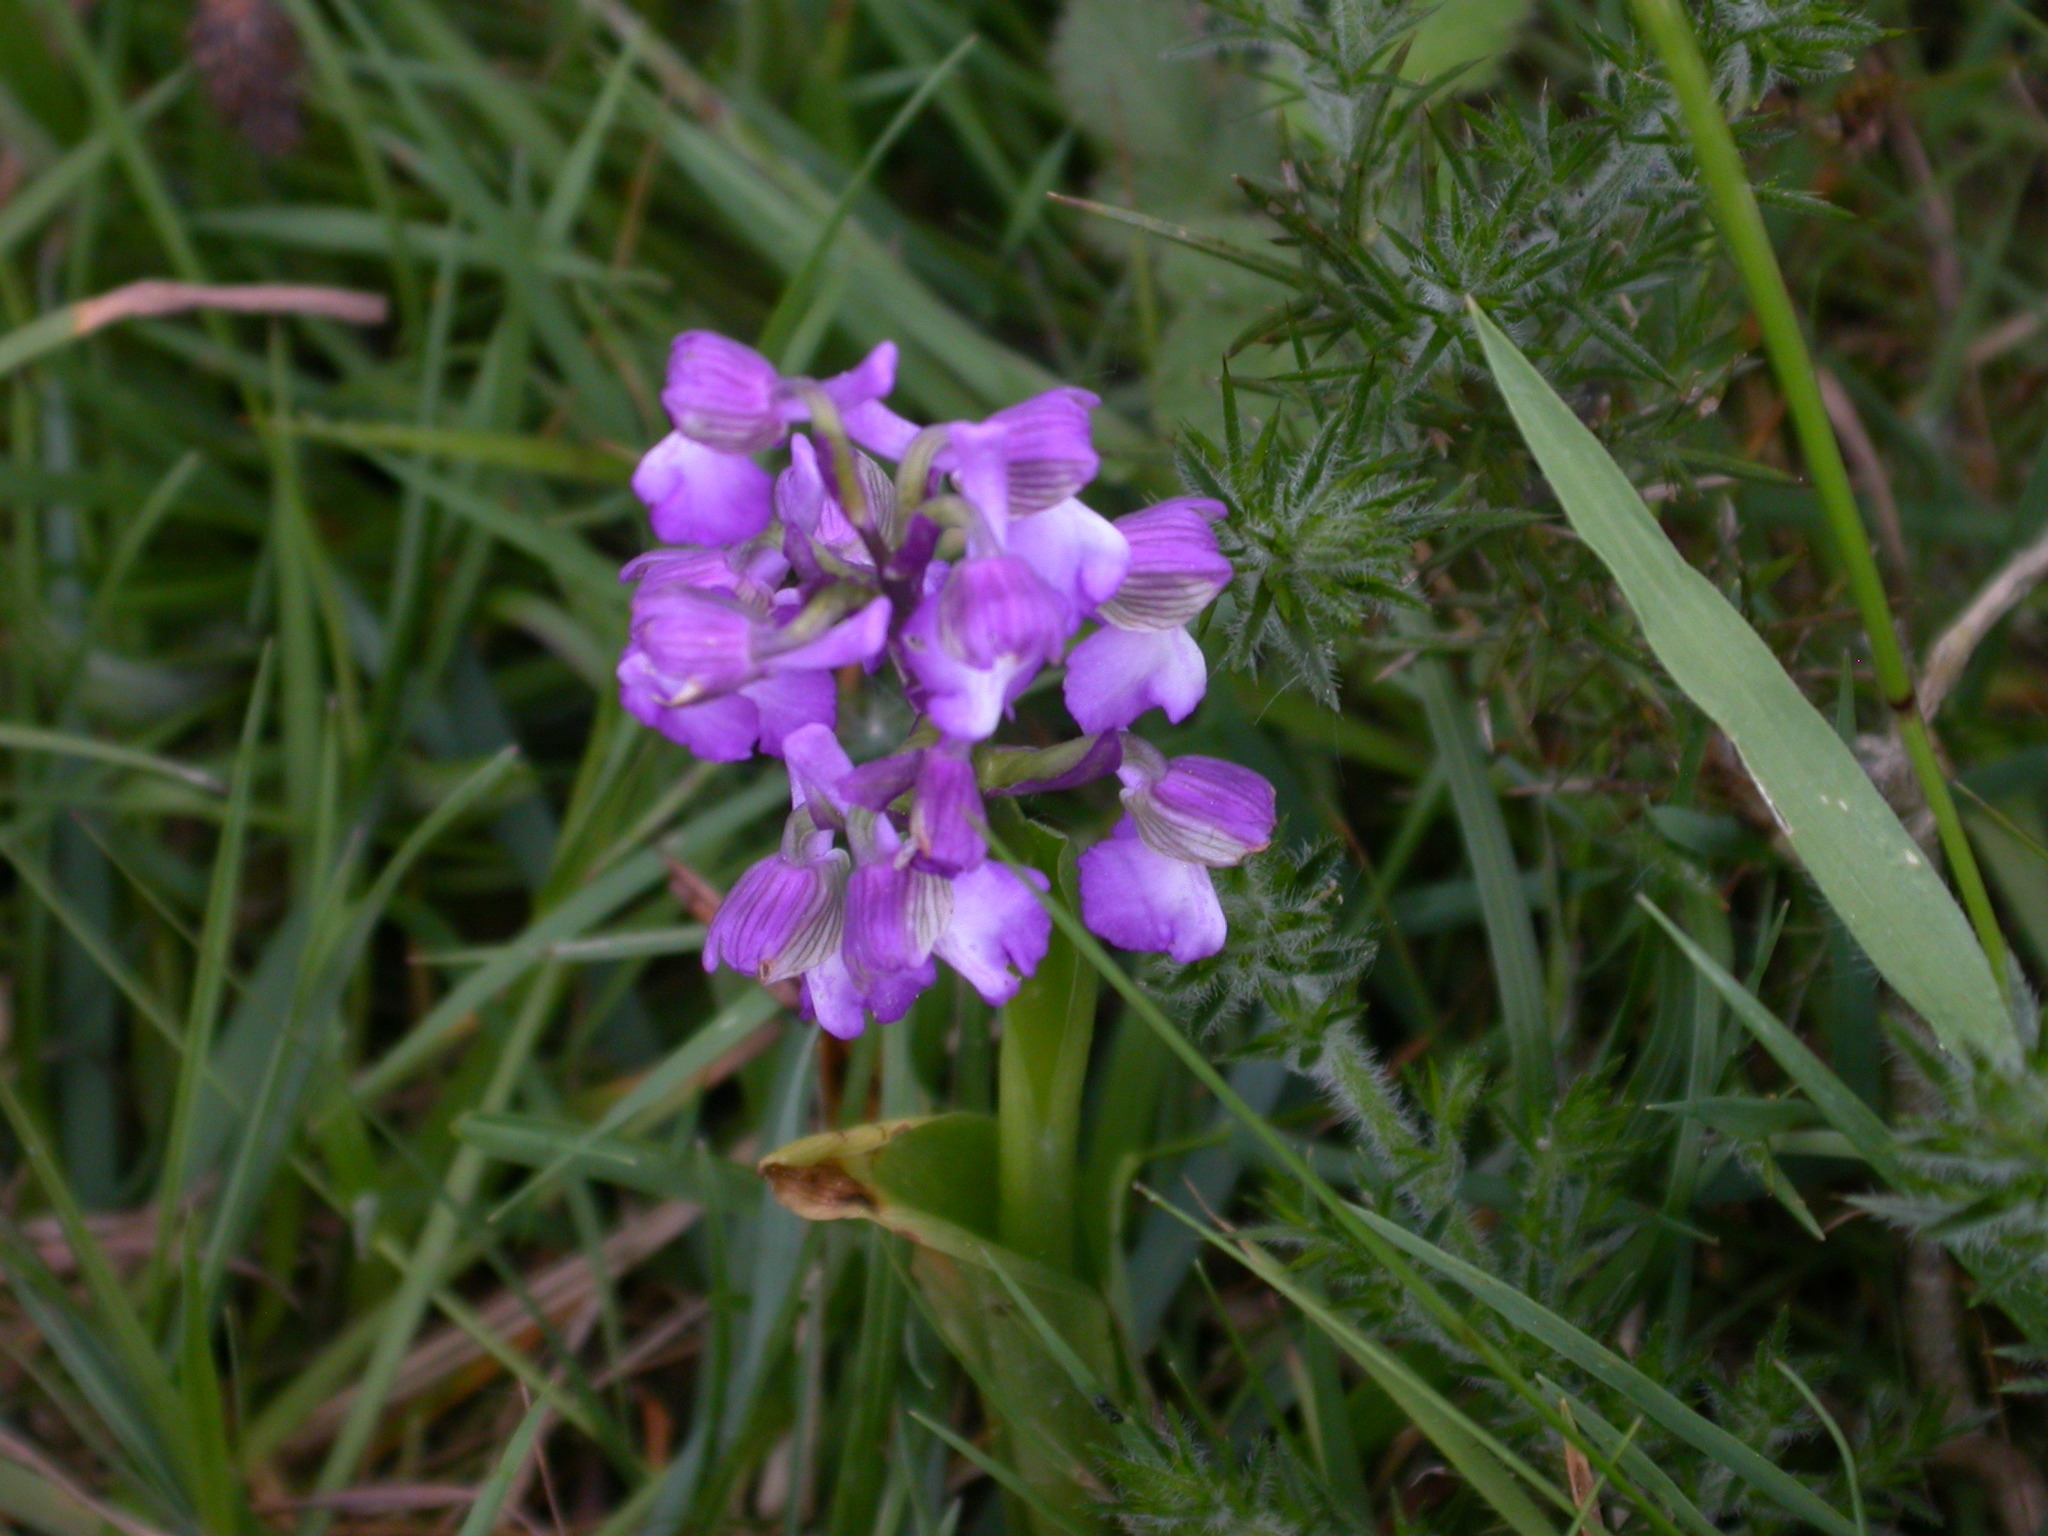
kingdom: Plantae
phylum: Tracheophyta
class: Liliopsida
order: Asparagales
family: Orchidaceae
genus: Anacamptis
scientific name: Anacamptis morio
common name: Green-winged orchid
